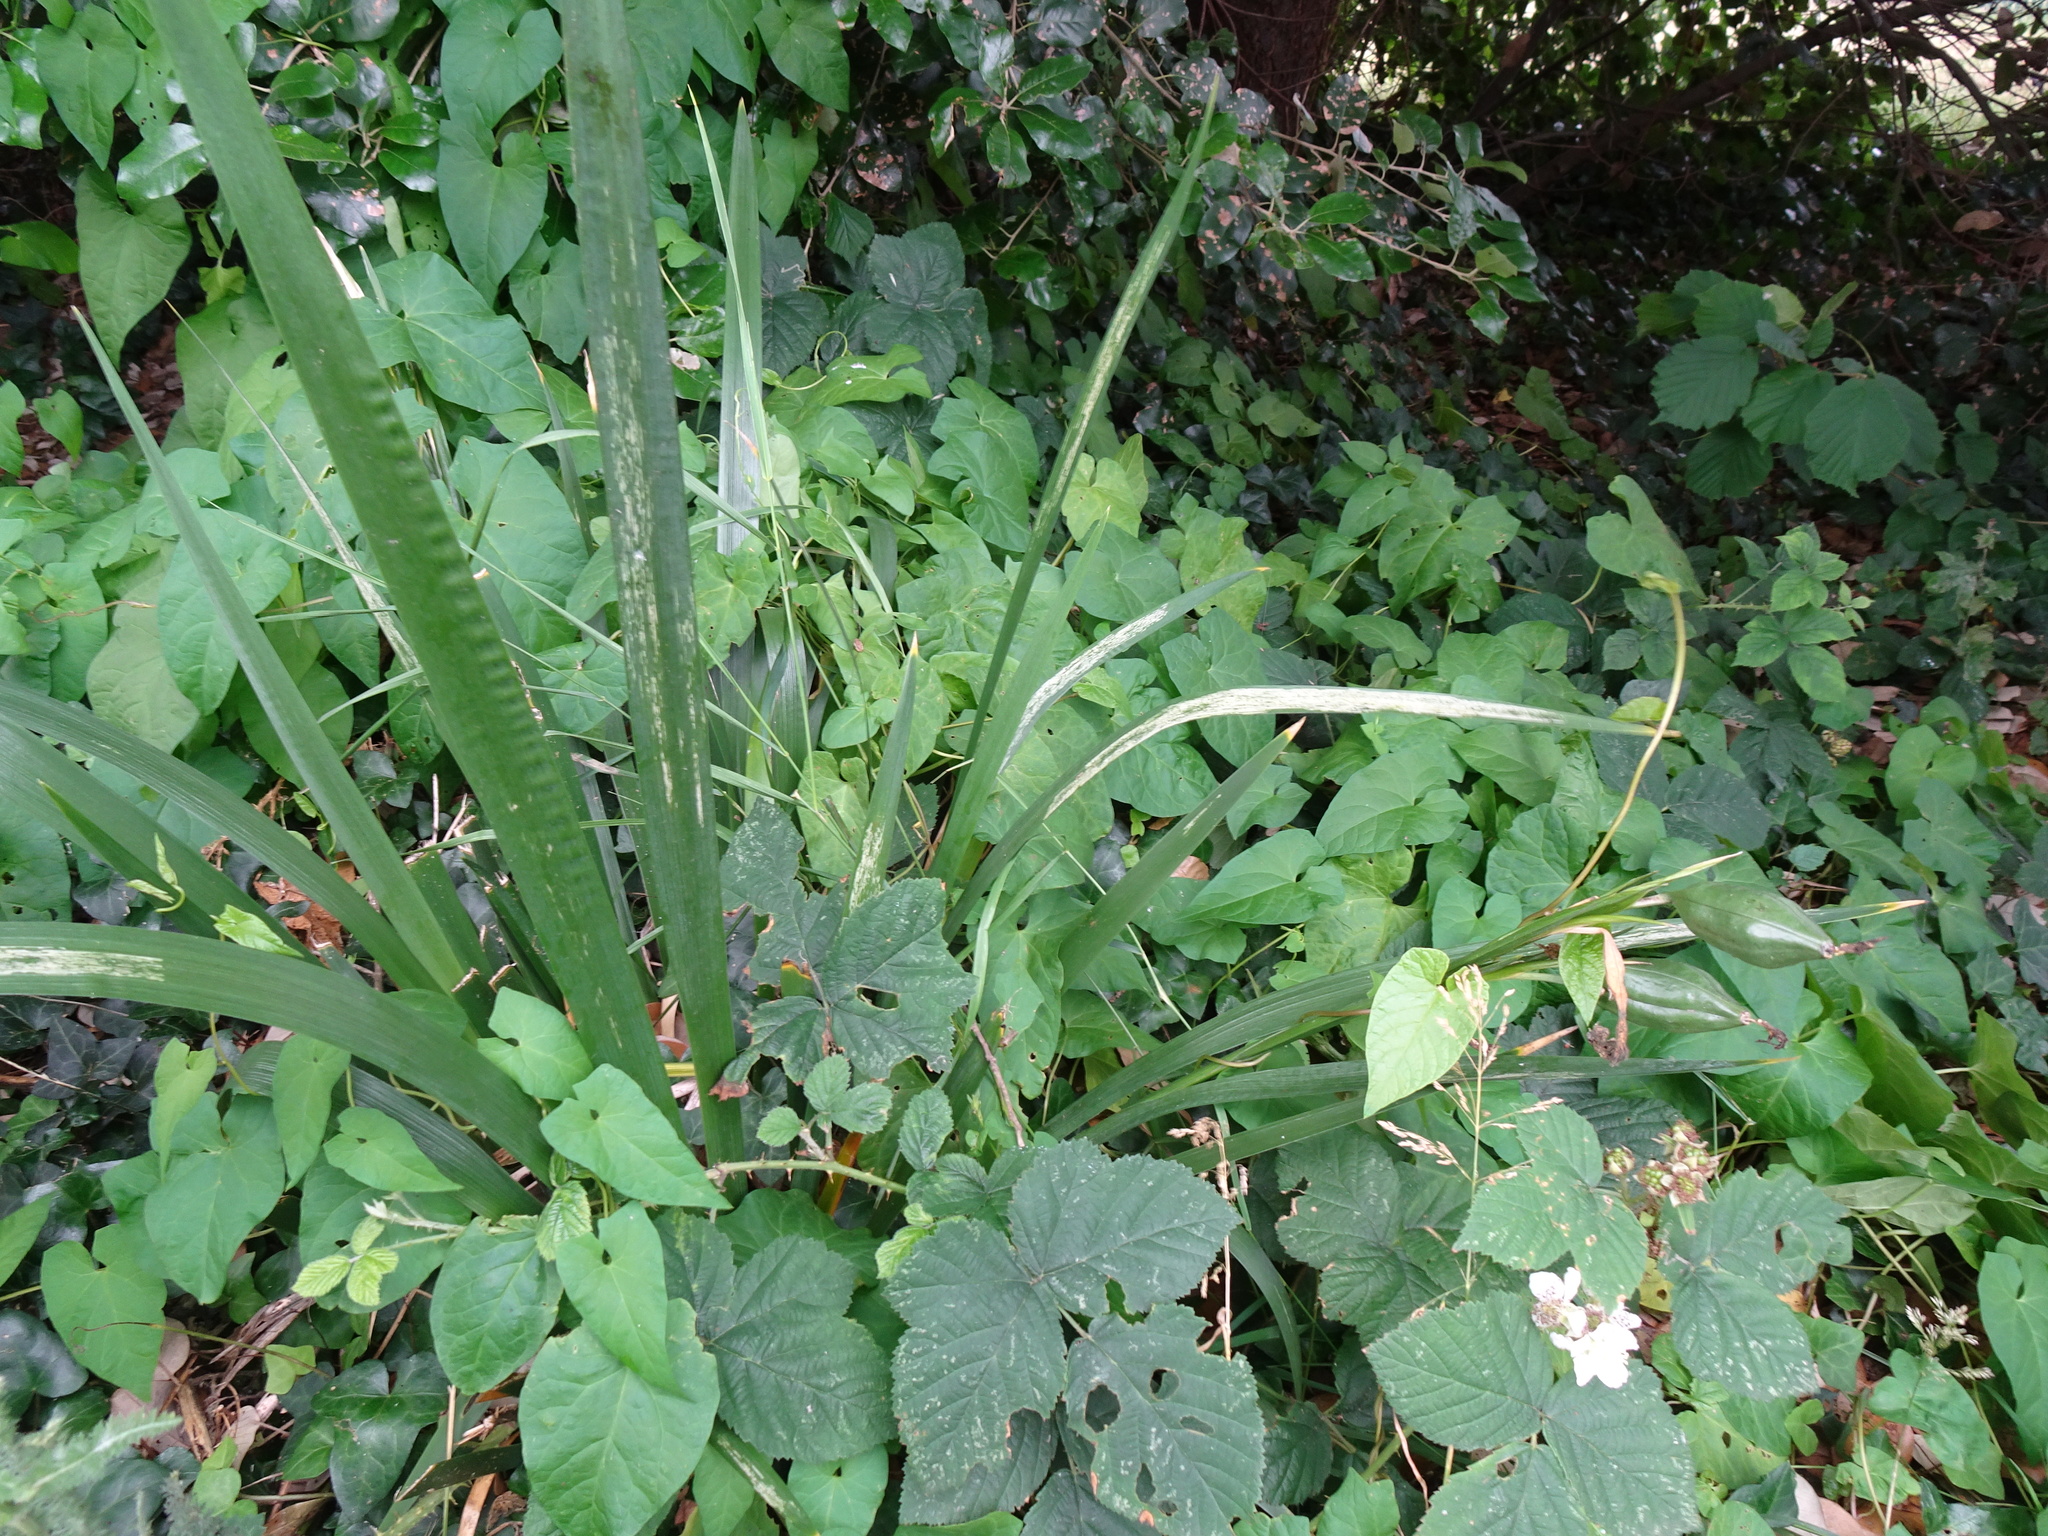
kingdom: Plantae
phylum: Tracheophyta
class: Liliopsida
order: Asparagales
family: Iridaceae
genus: Iris
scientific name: Iris foetidissima
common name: Stinking iris
